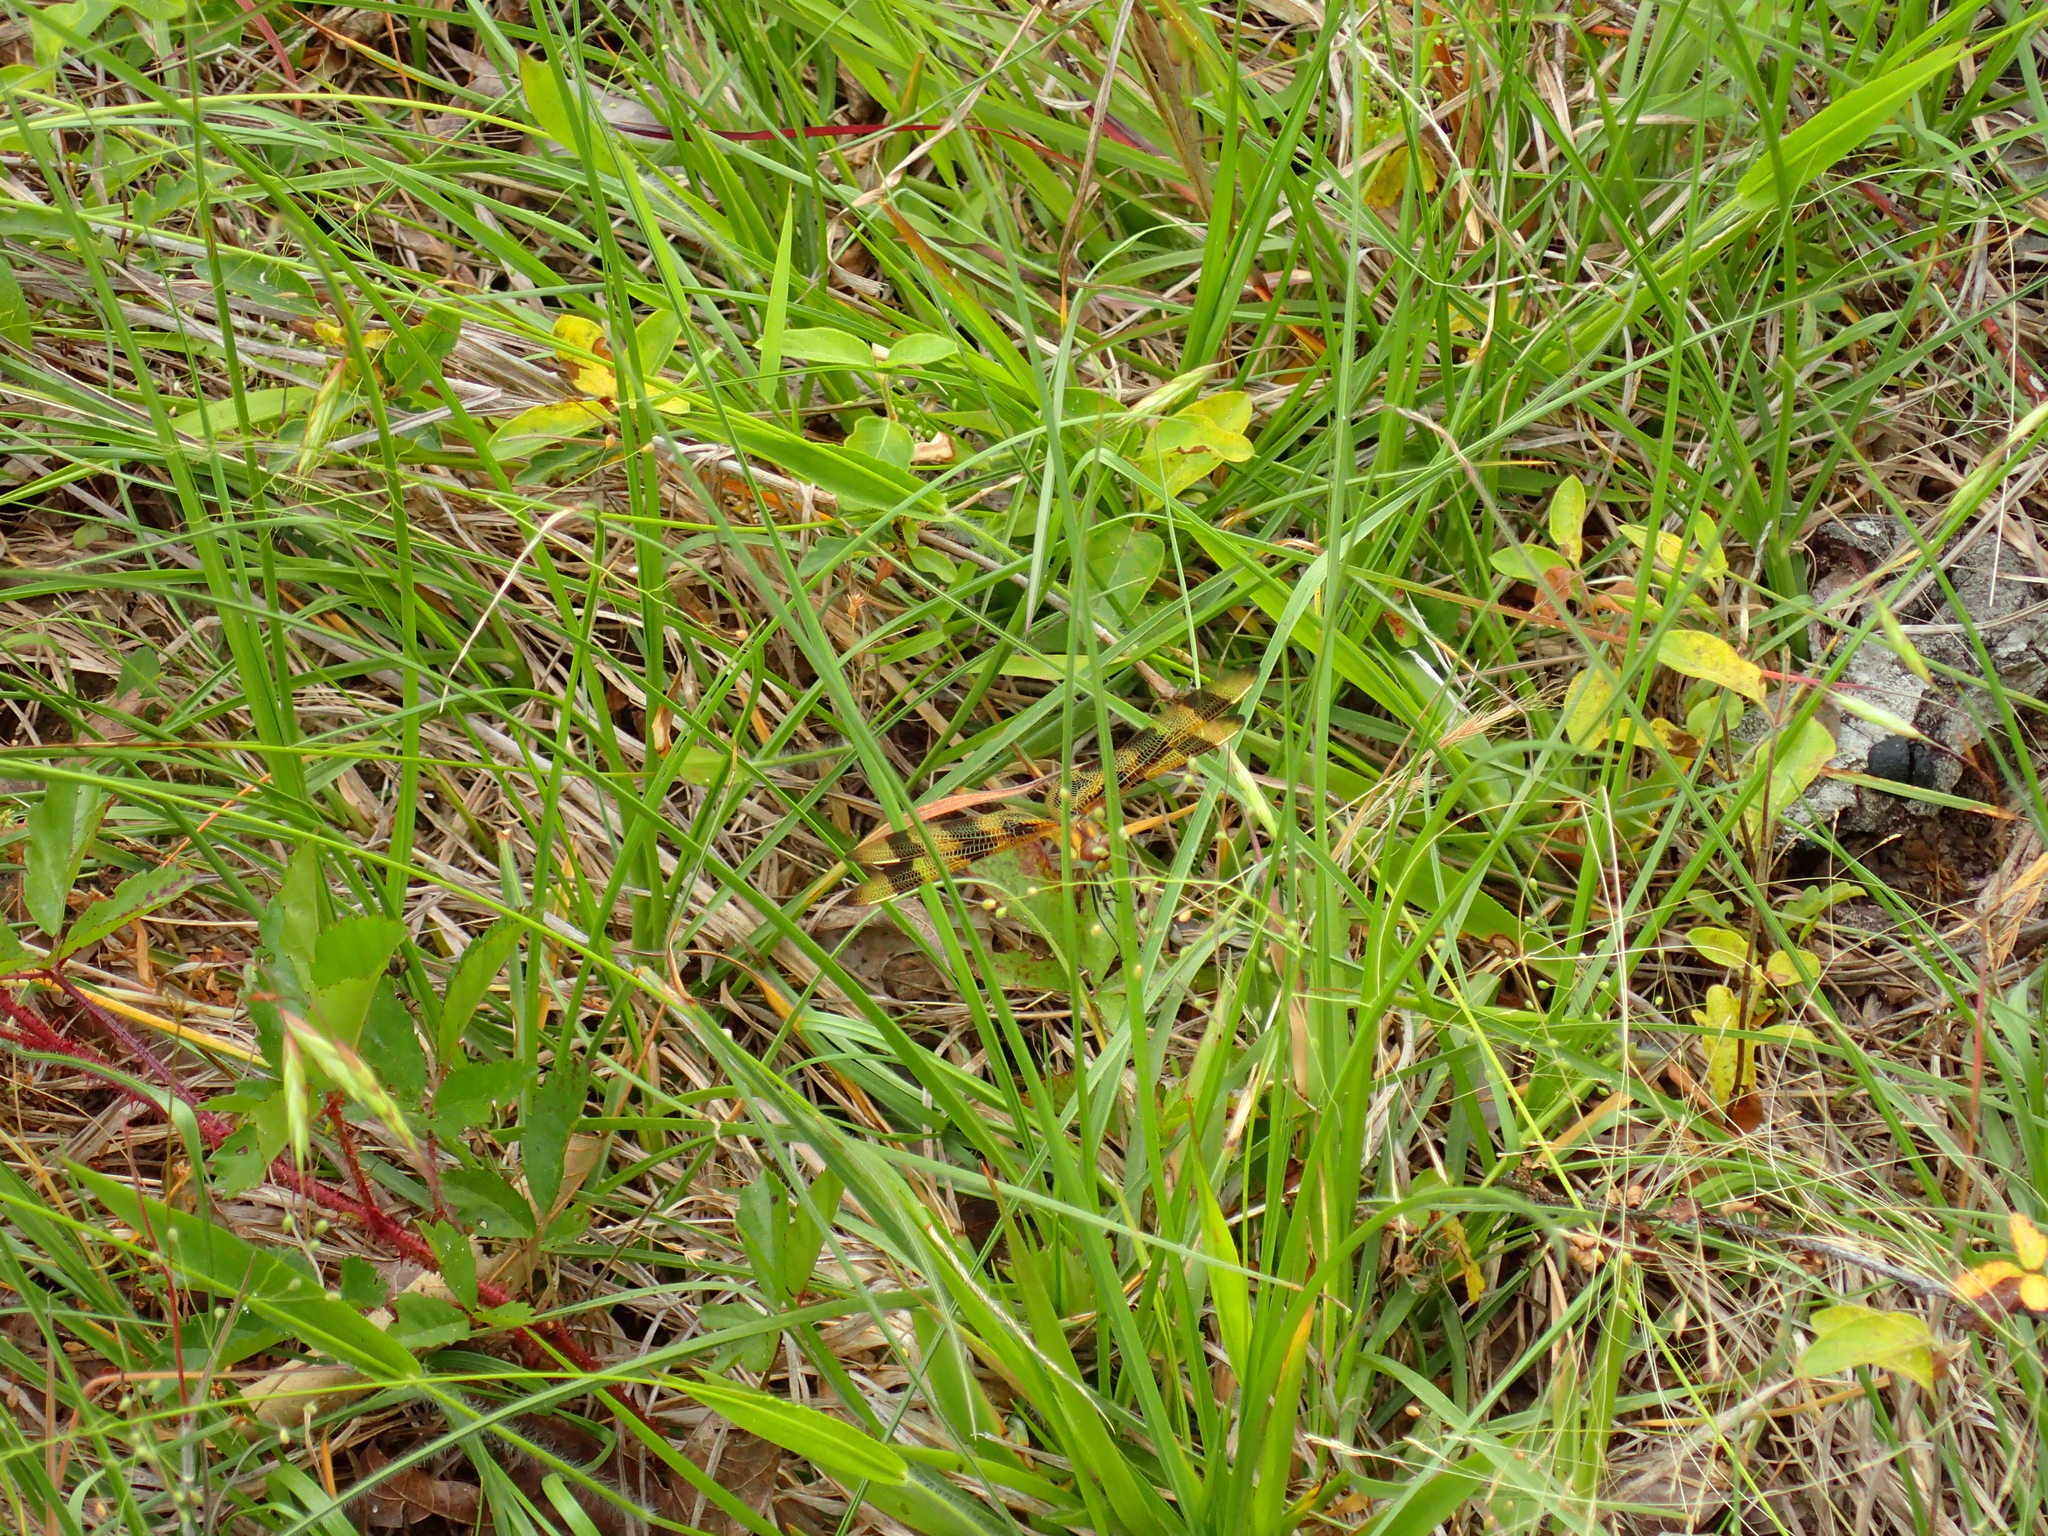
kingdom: Animalia
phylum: Arthropoda
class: Insecta
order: Odonata
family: Libellulidae
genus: Celithemis
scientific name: Celithemis eponina
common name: Halloween pennant
